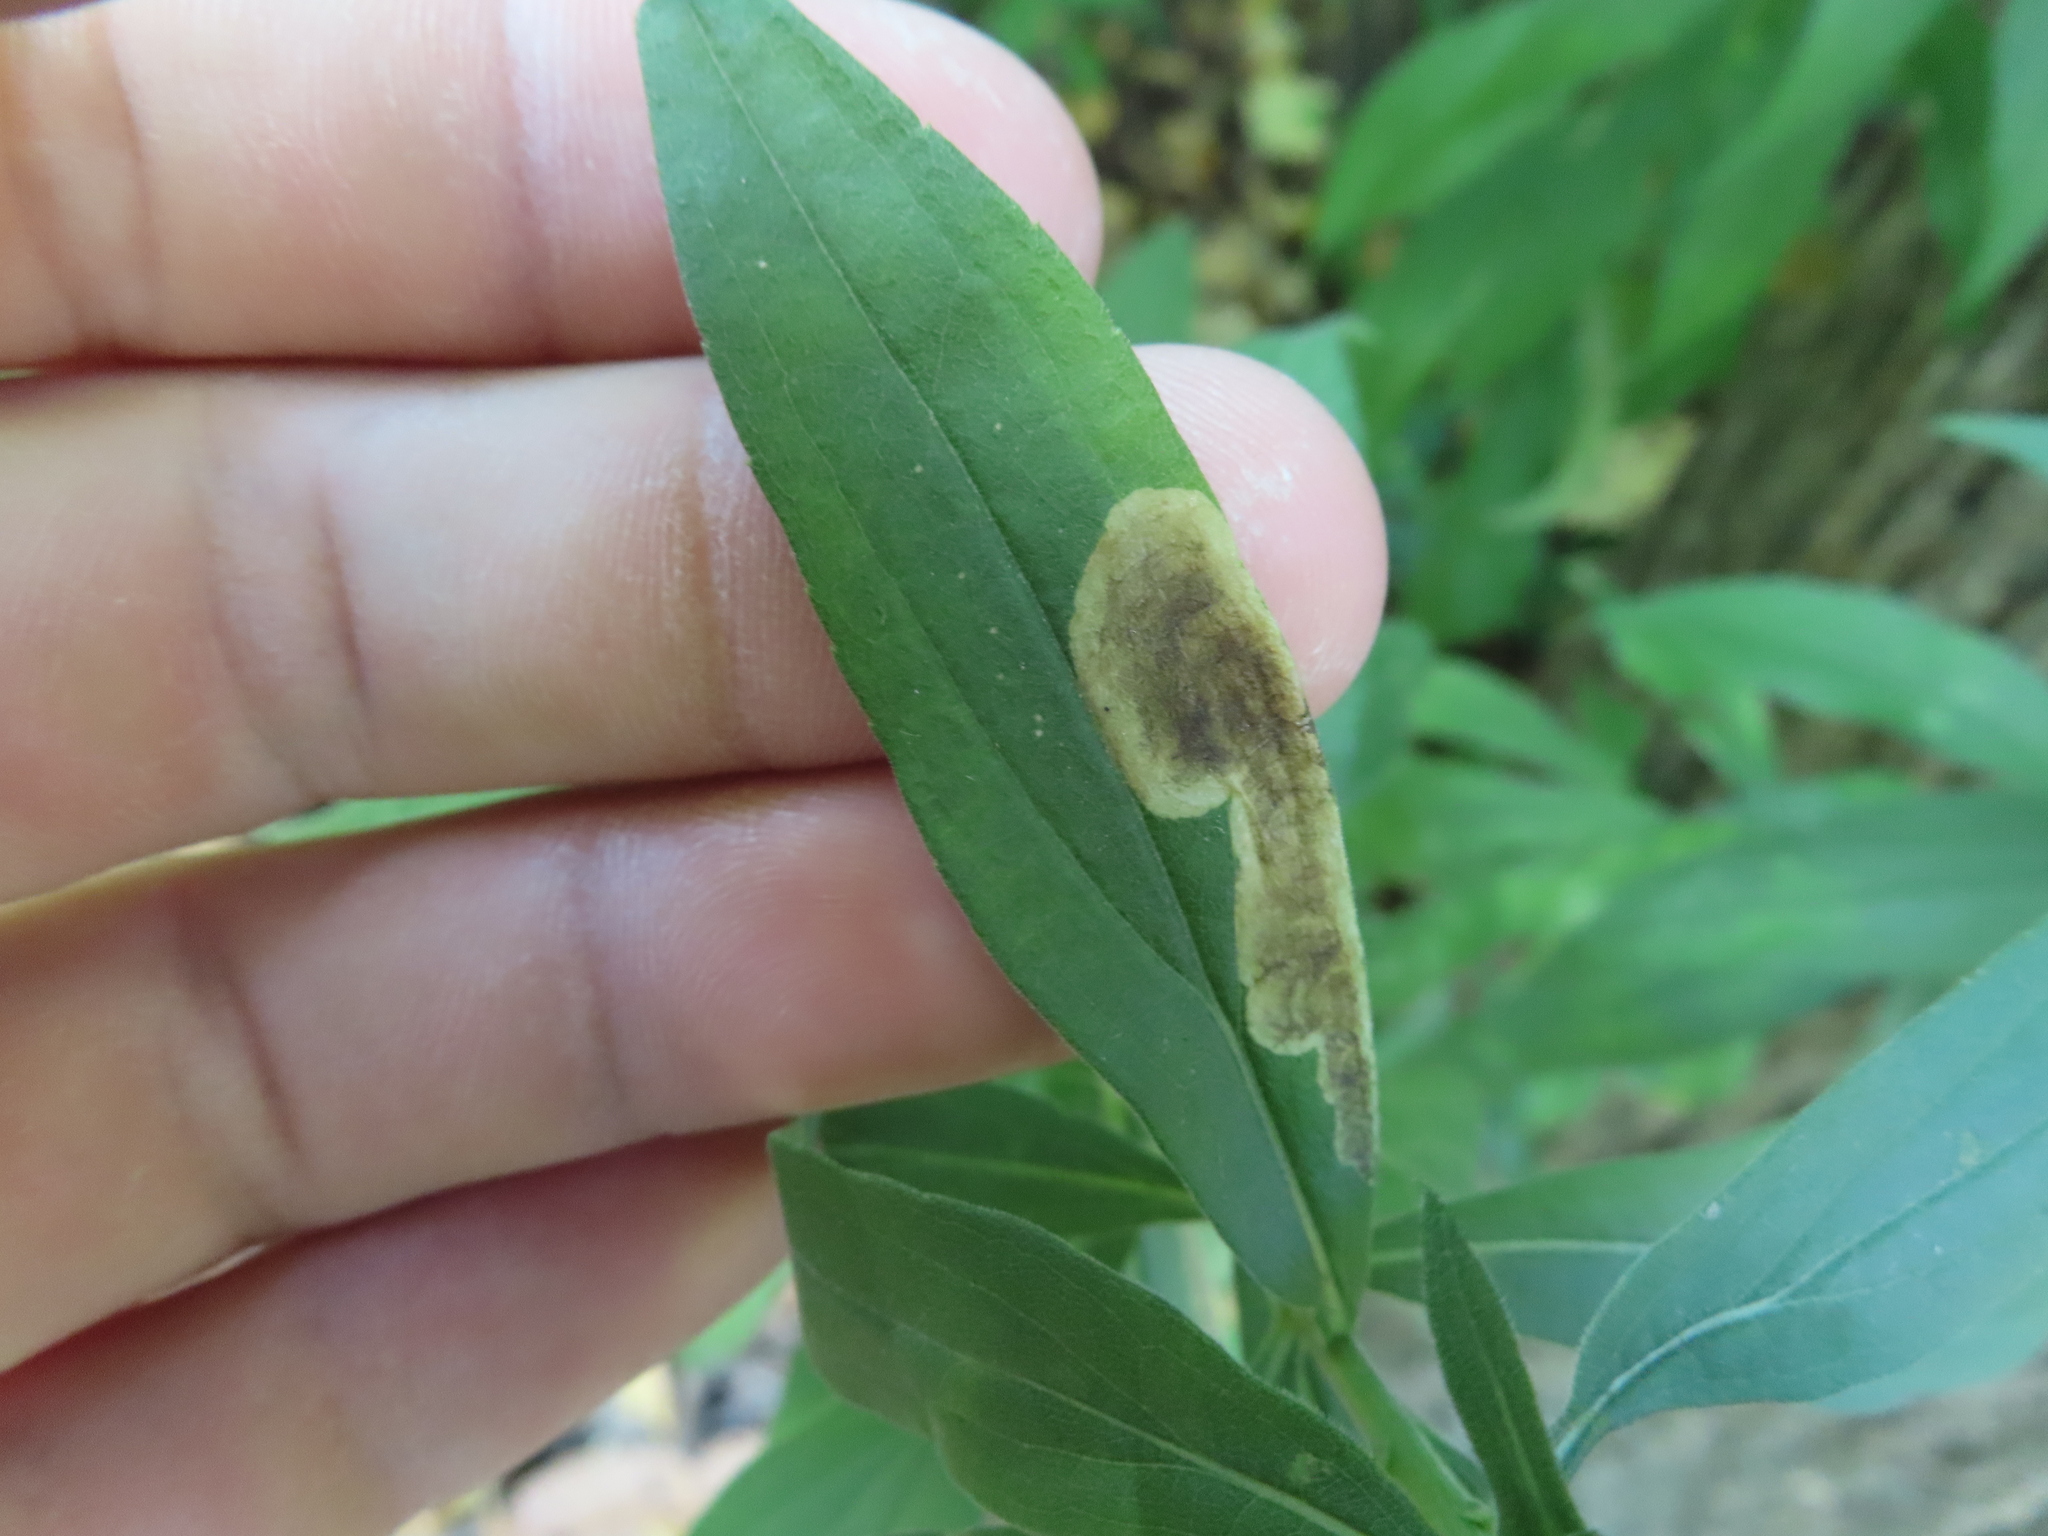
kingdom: Animalia
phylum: Arthropoda
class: Insecta
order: Diptera
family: Agromyzidae
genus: Nemorimyza
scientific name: Nemorimyza posticata
